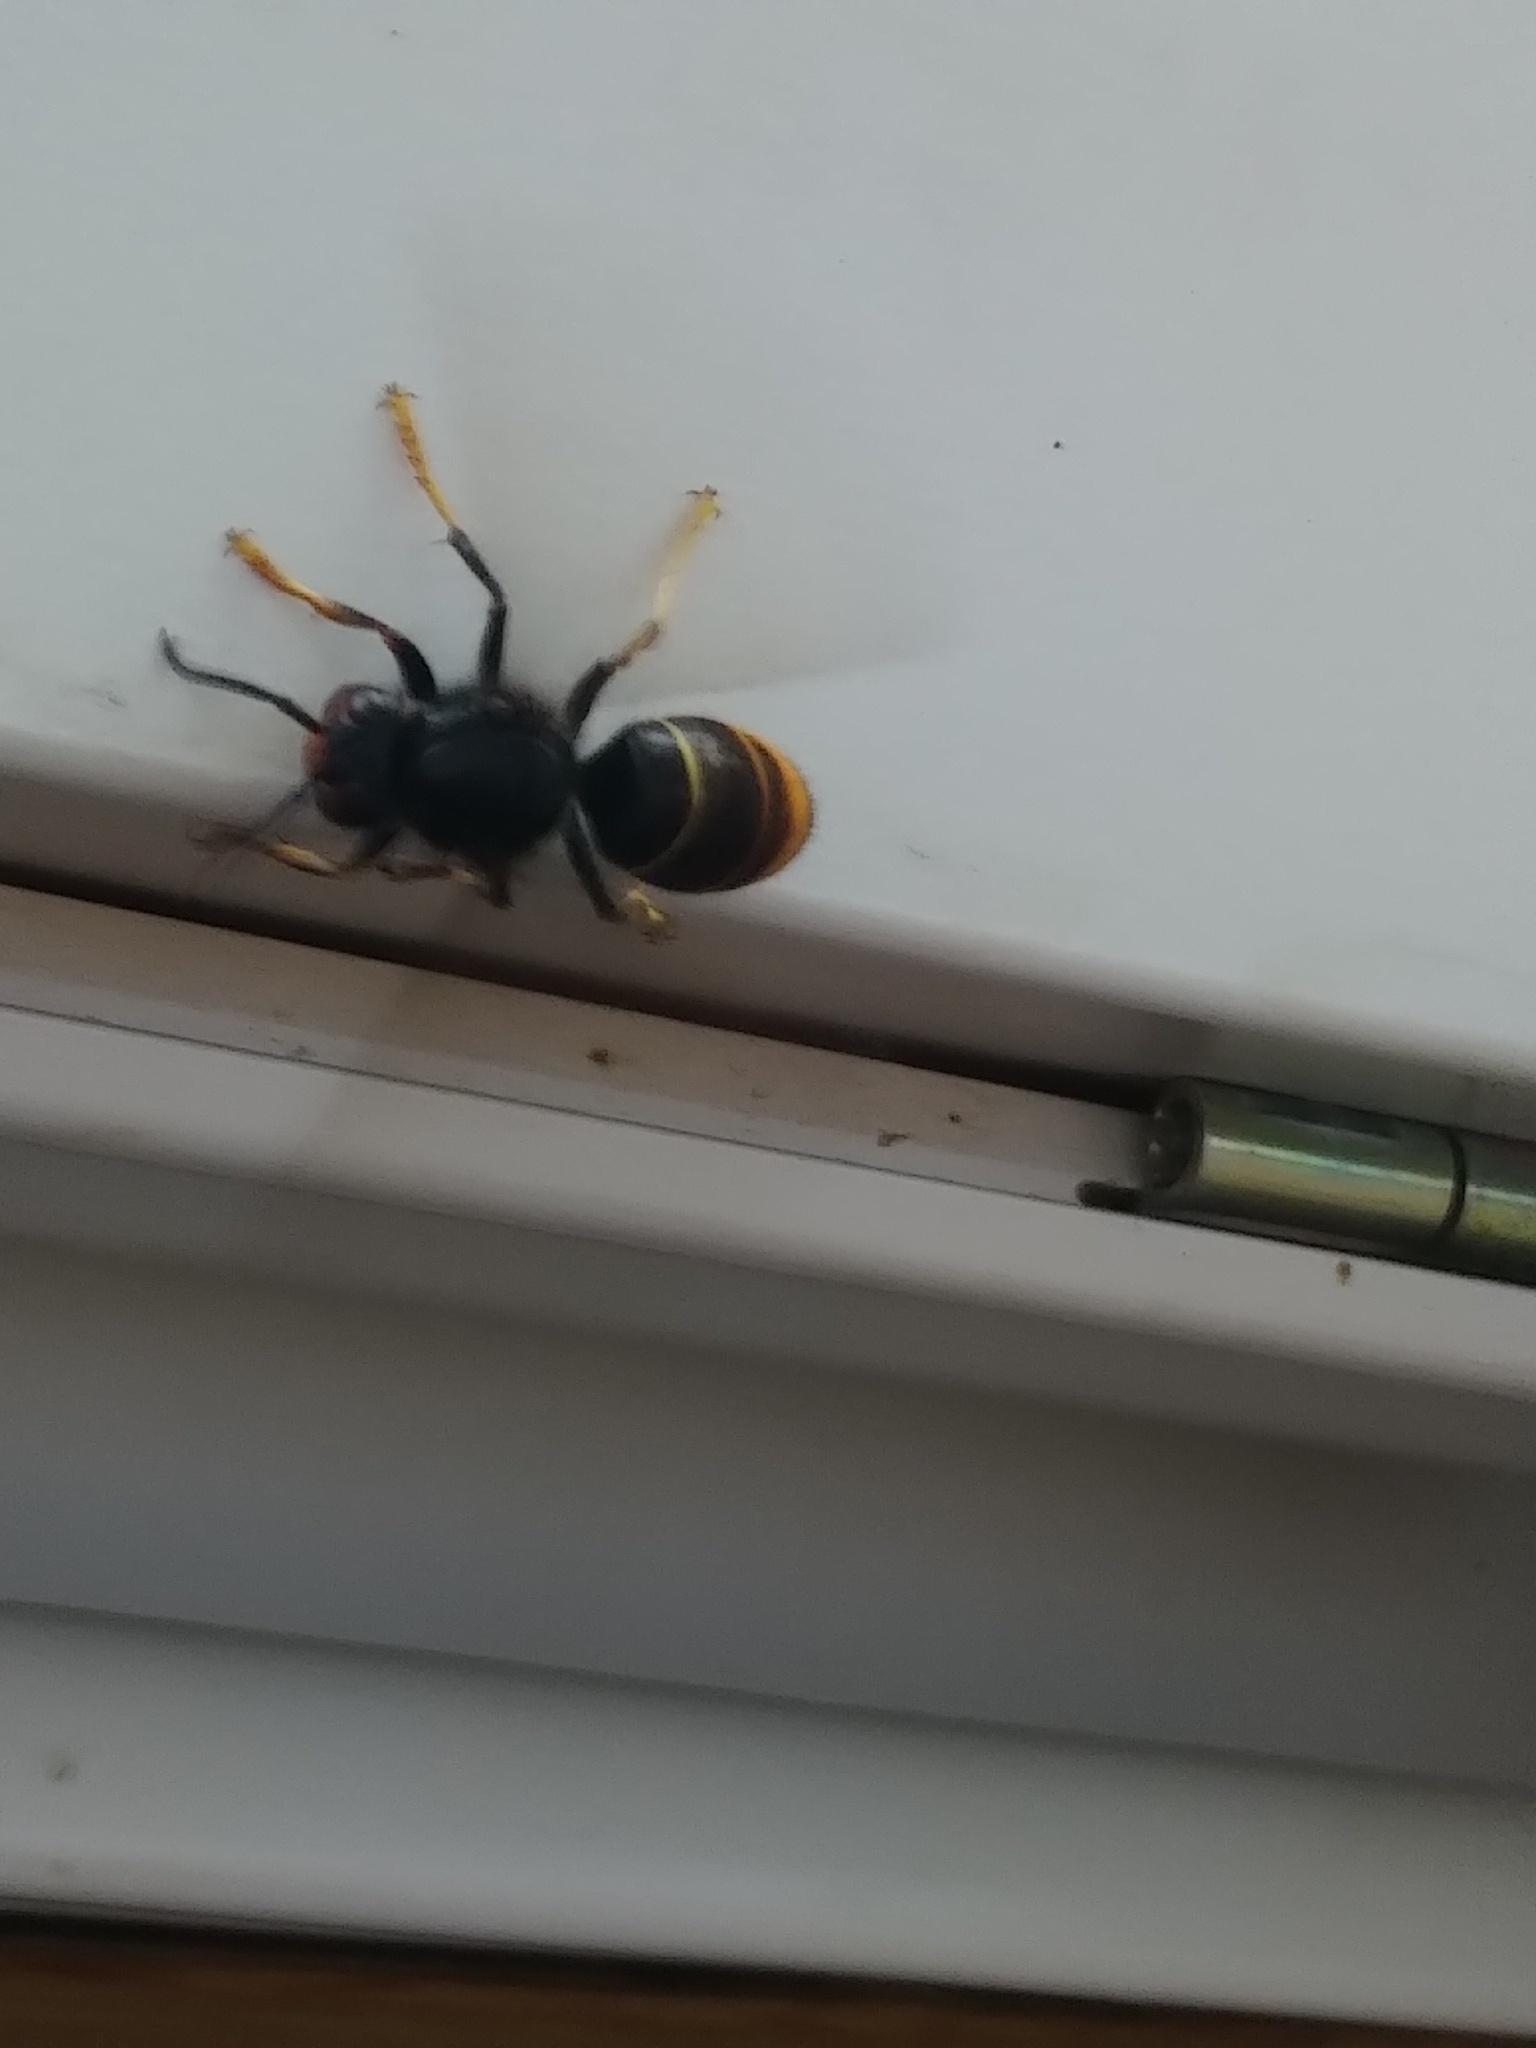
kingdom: Animalia
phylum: Arthropoda
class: Insecta
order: Hymenoptera
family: Vespidae
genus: Vespa
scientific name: Vespa velutina
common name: Asian hornet
